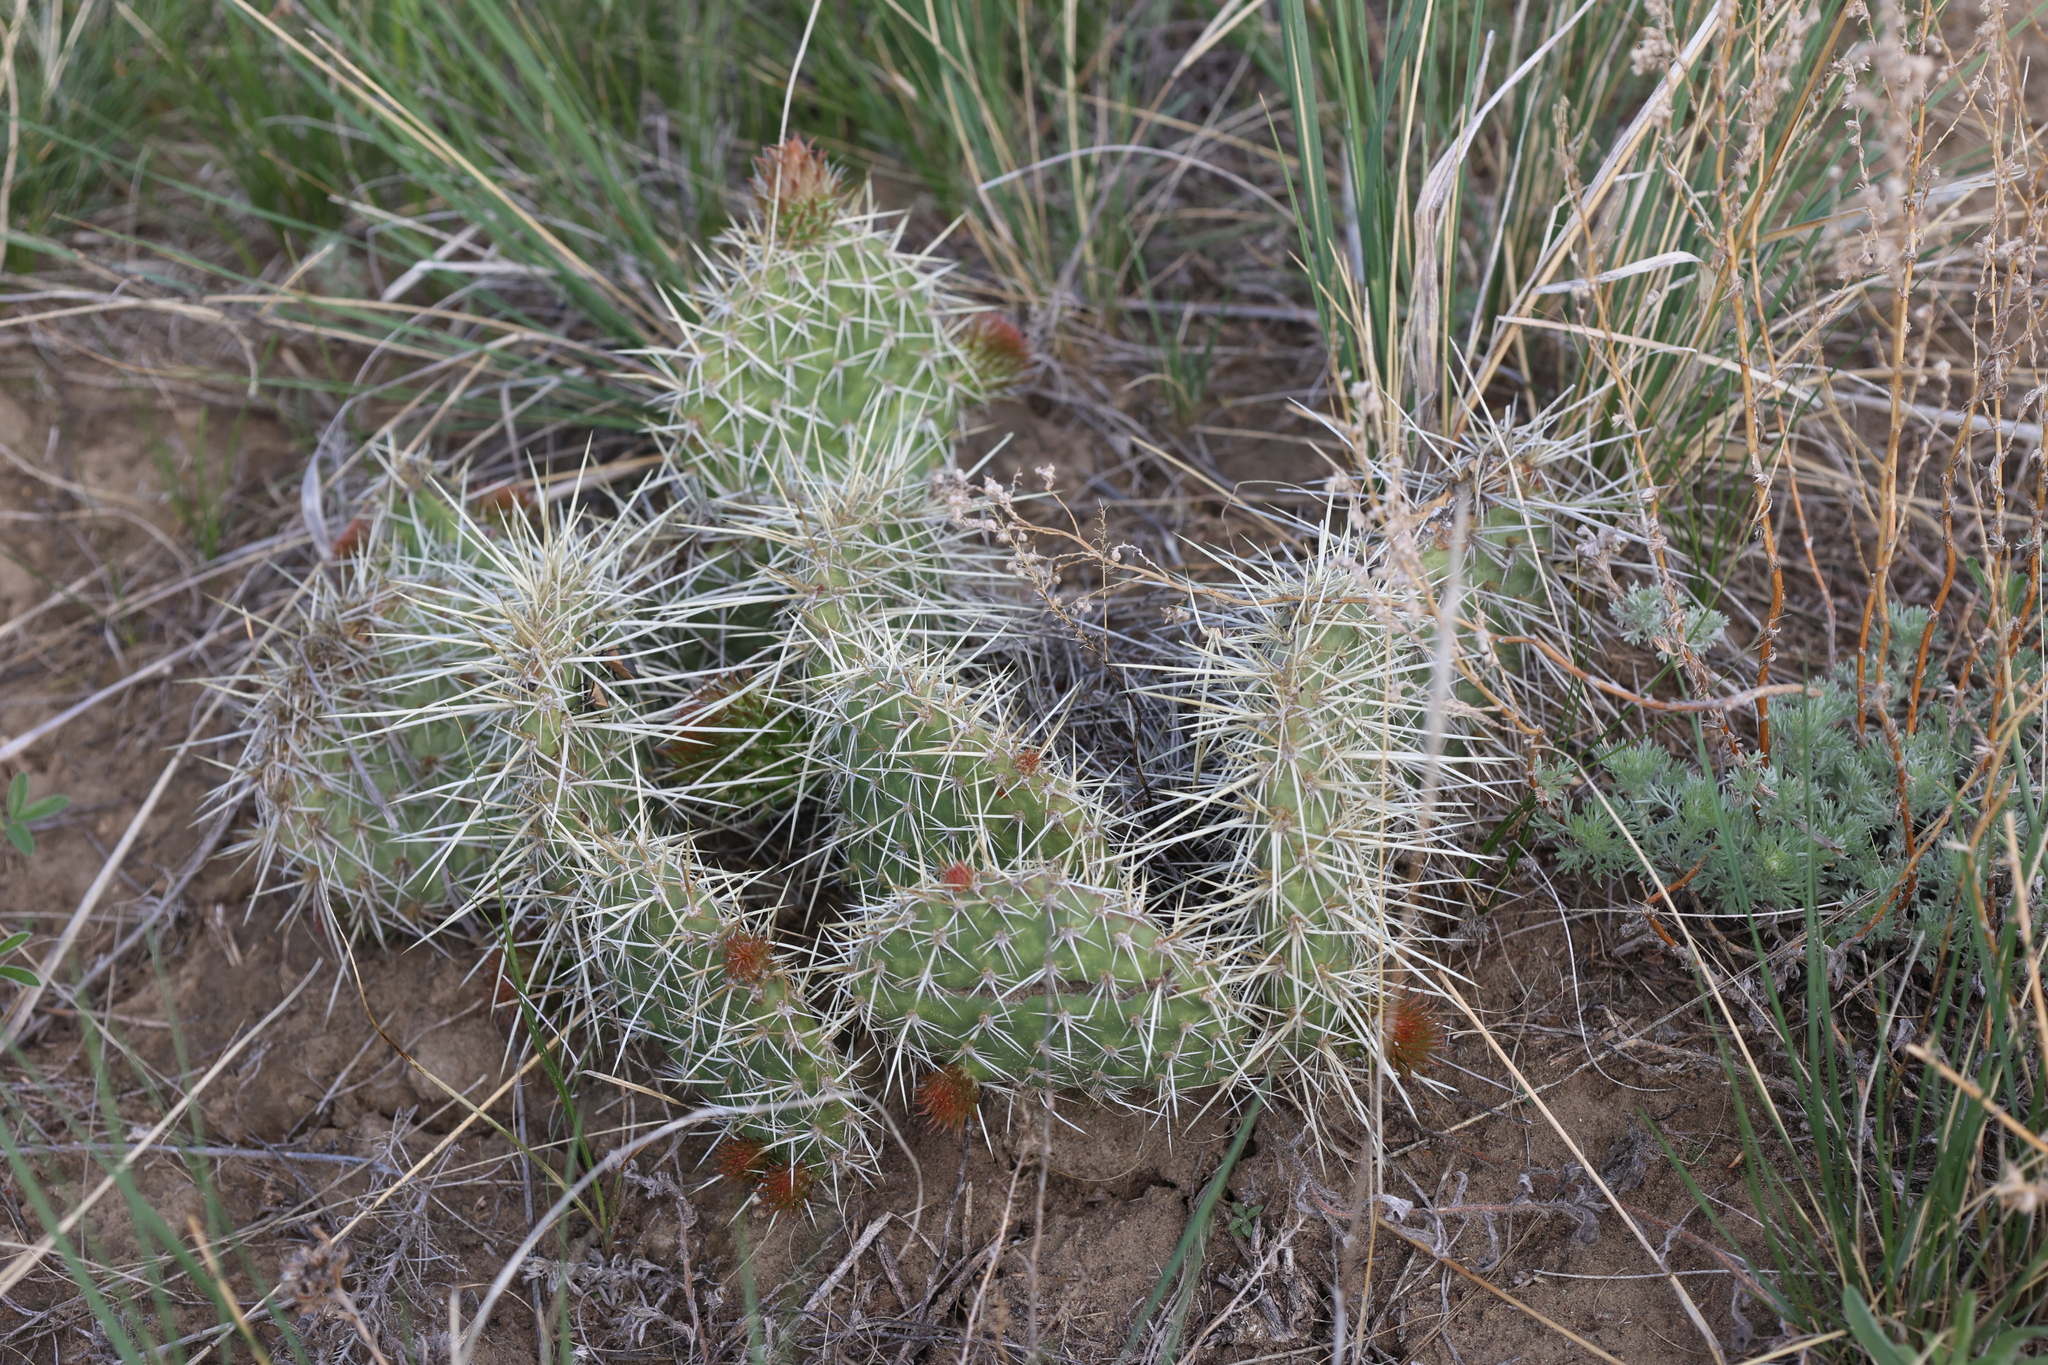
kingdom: Plantae
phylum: Tracheophyta
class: Magnoliopsida
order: Caryophyllales
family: Cactaceae
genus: Opuntia
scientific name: Opuntia polyacantha
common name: Plains prickly-pear
